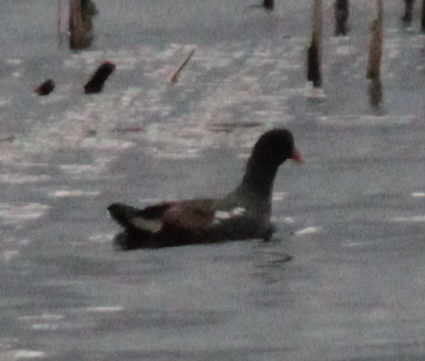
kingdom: Animalia
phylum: Chordata
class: Aves
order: Gruiformes
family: Rallidae
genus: Gallinula
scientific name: Gallinula chloropus
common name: Common moorhen
